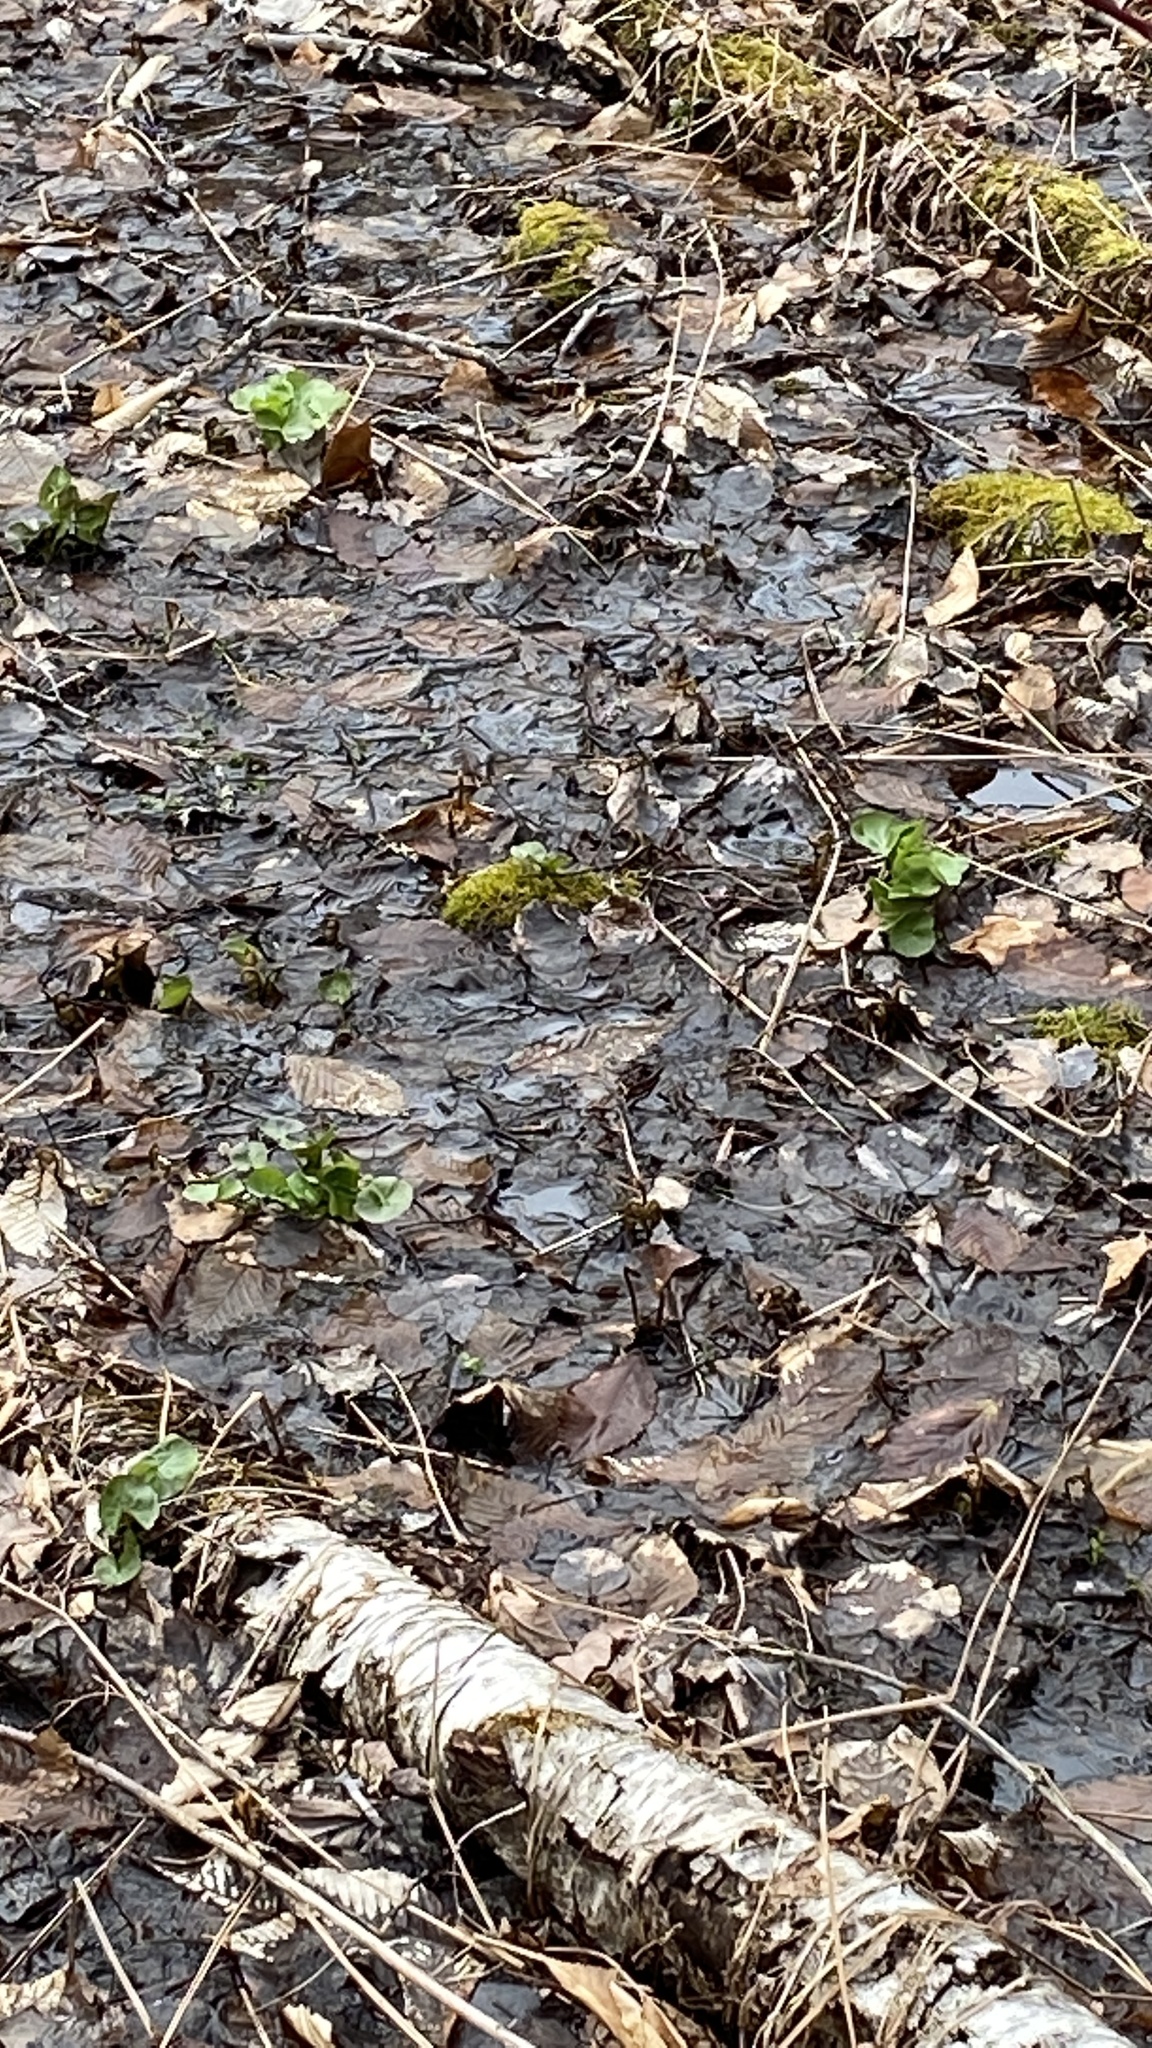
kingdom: Plantae
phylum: Tracheophyta
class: Magnoliopsida
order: Ranunculales
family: Ranunculaceae
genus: Caltha
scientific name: Caltha palustris
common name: Marsh marigold
